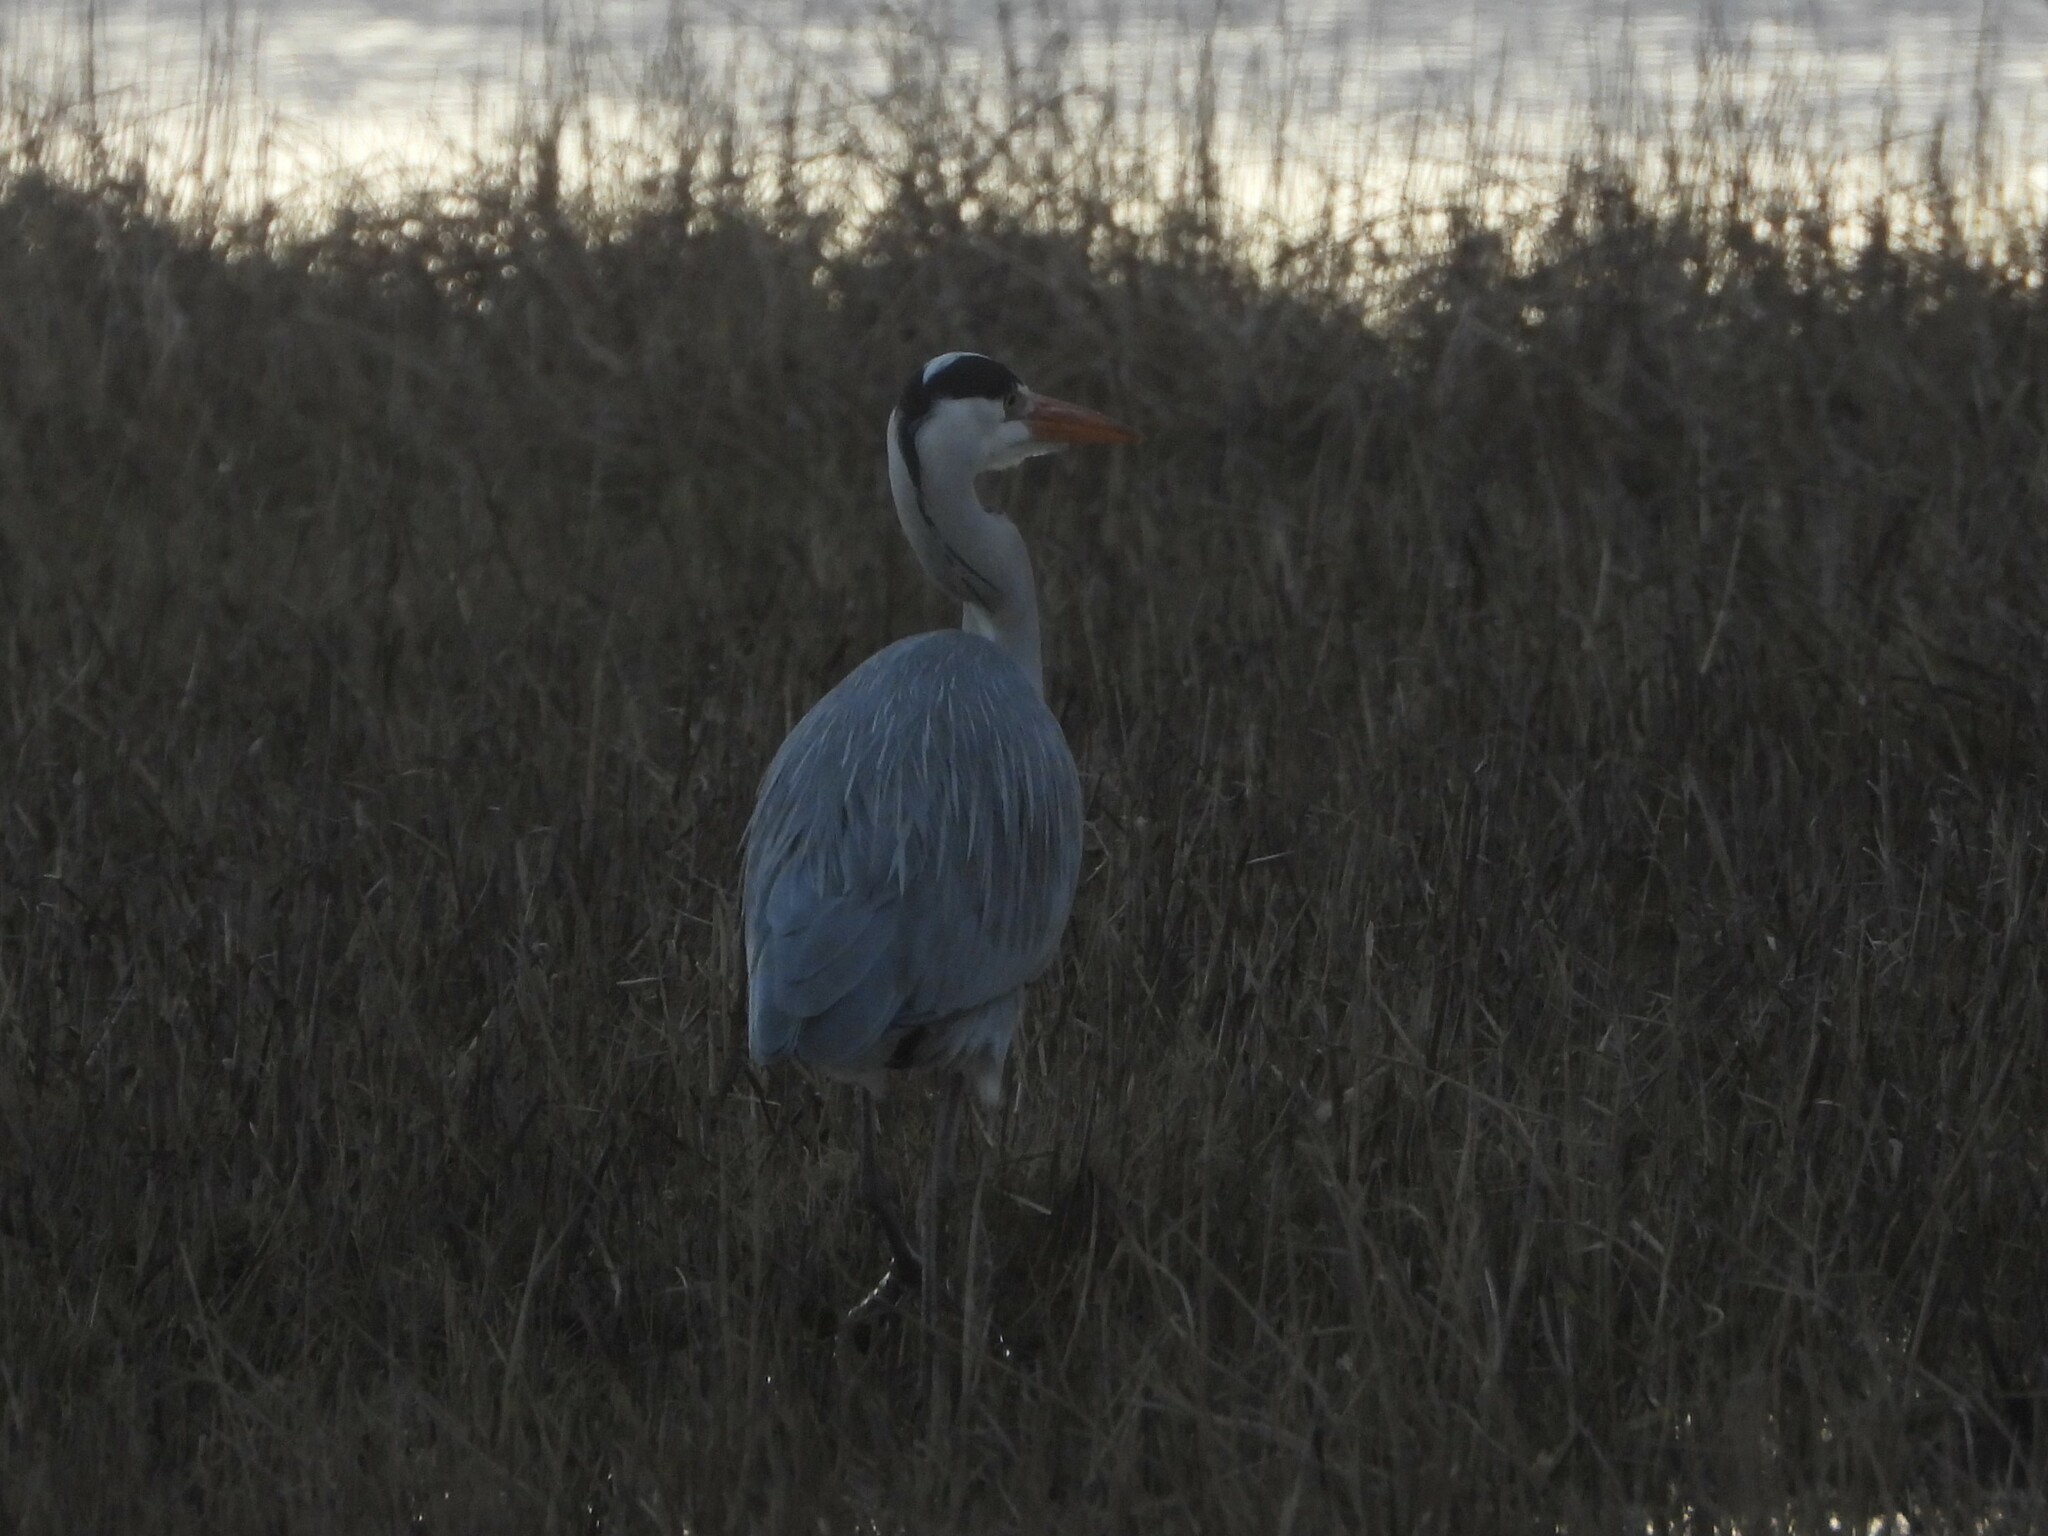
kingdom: Animalia
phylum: Chordata
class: Aves
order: Pelecaniformes
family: Ardeidae
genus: Ardea
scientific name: Ardea cinerea
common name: Grey heron
